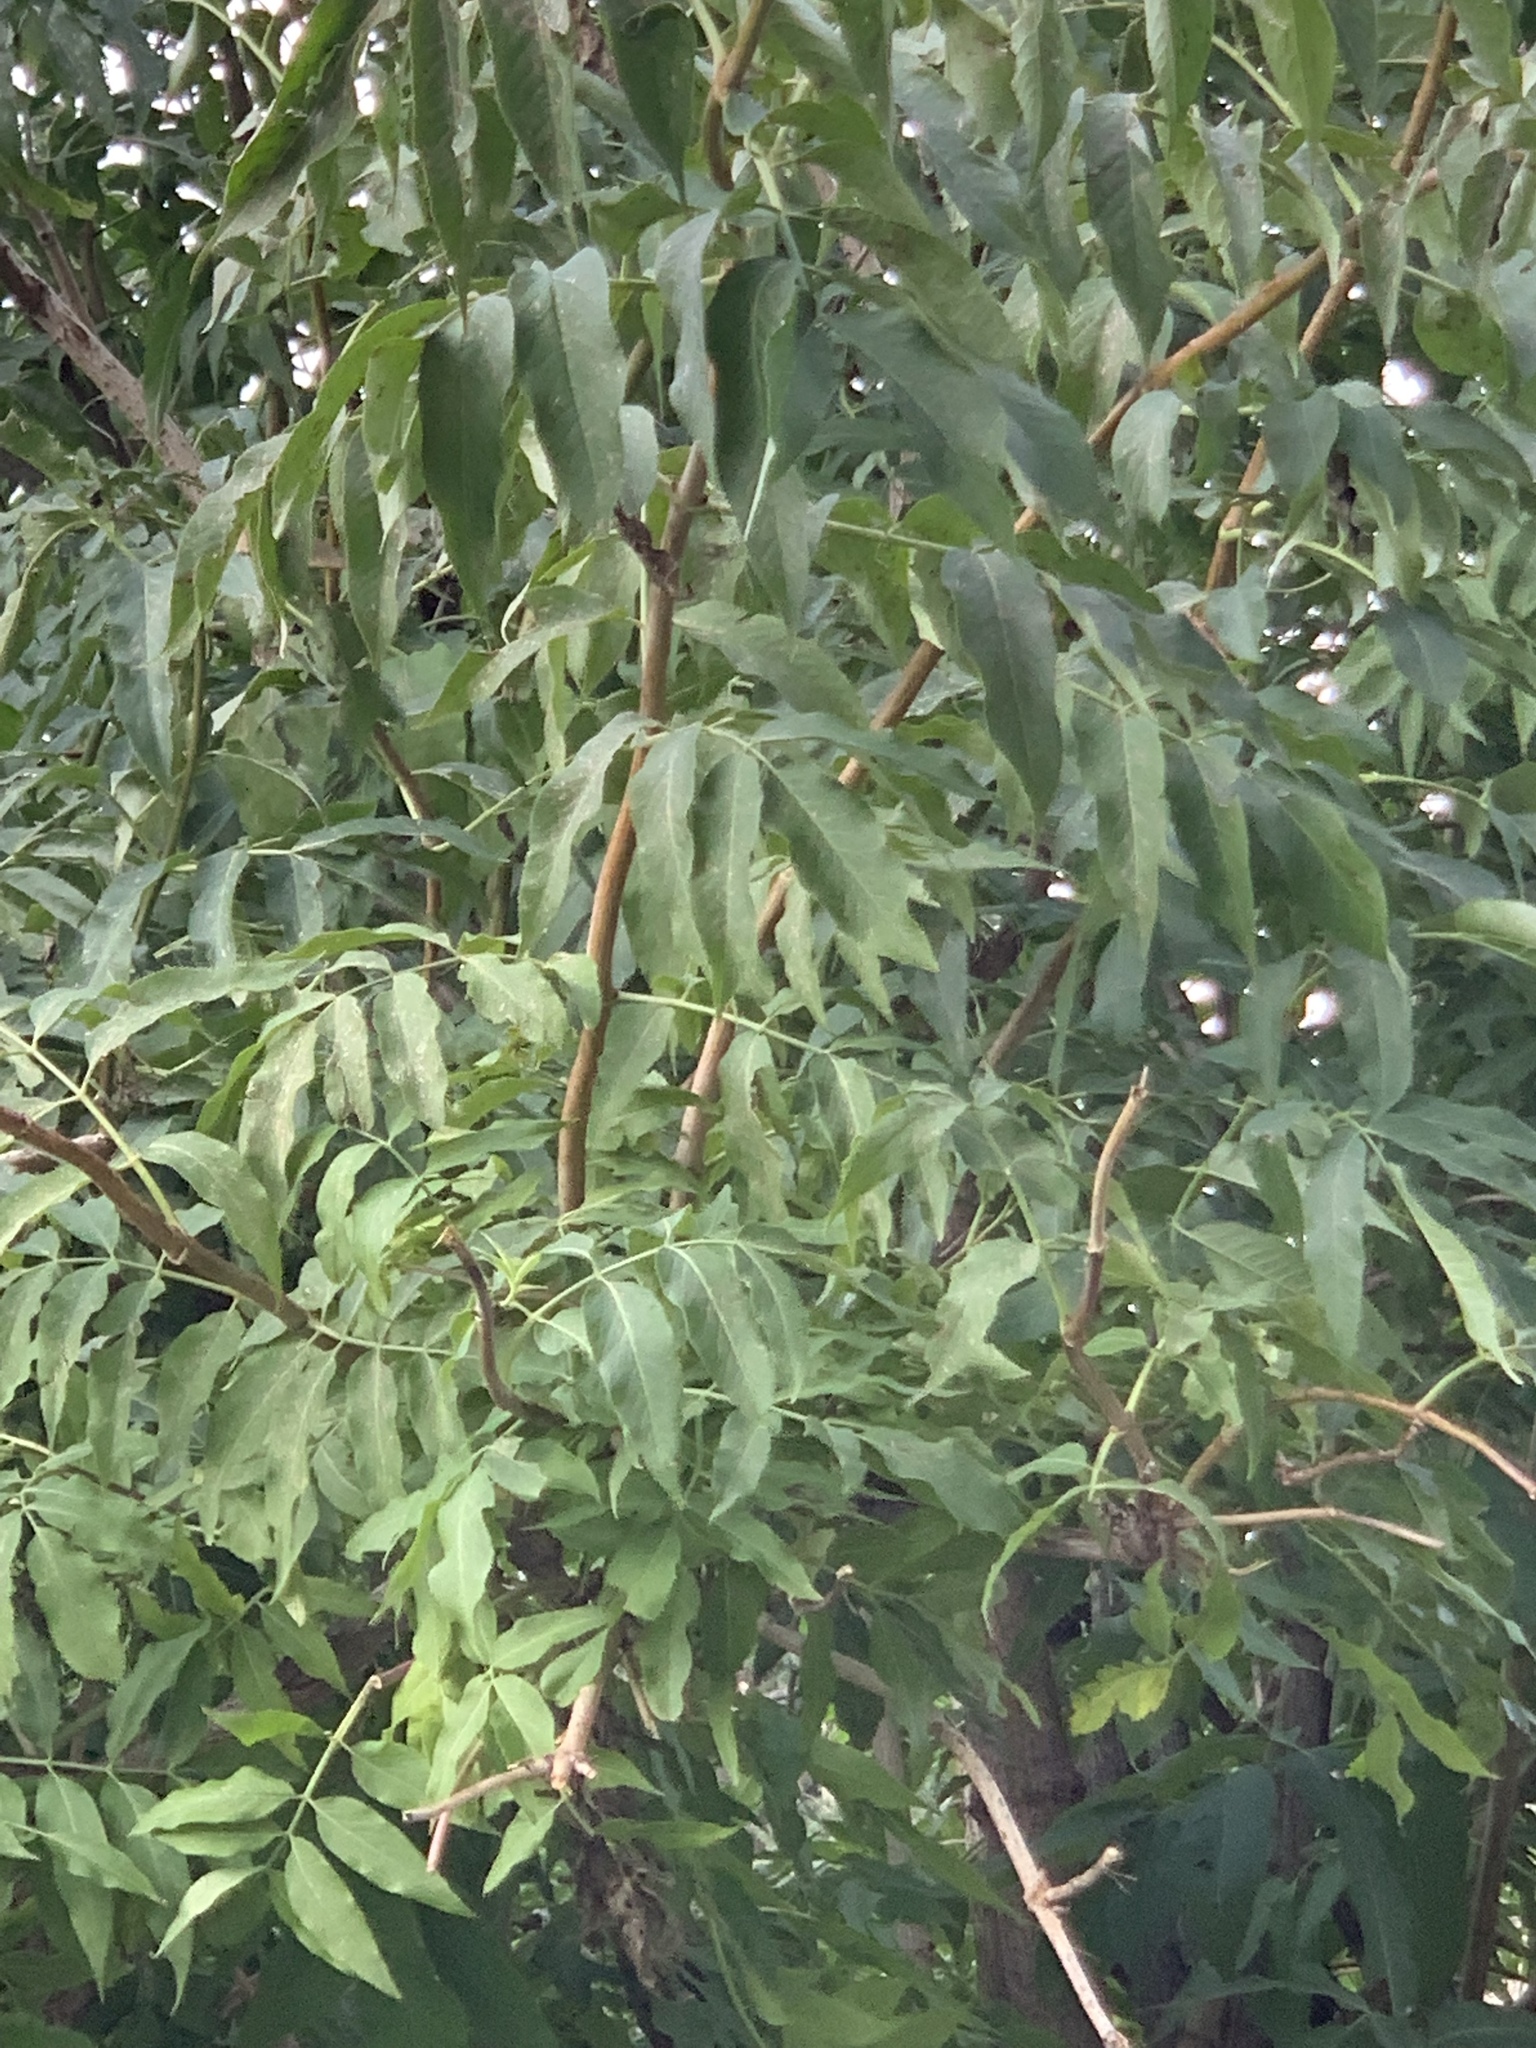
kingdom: Plantae
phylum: Tracheophyta
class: Magnoliopsida
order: Dipsacales
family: Viburnaceae
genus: Sambucus
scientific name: Sambucus cerulea
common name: Blue elder
